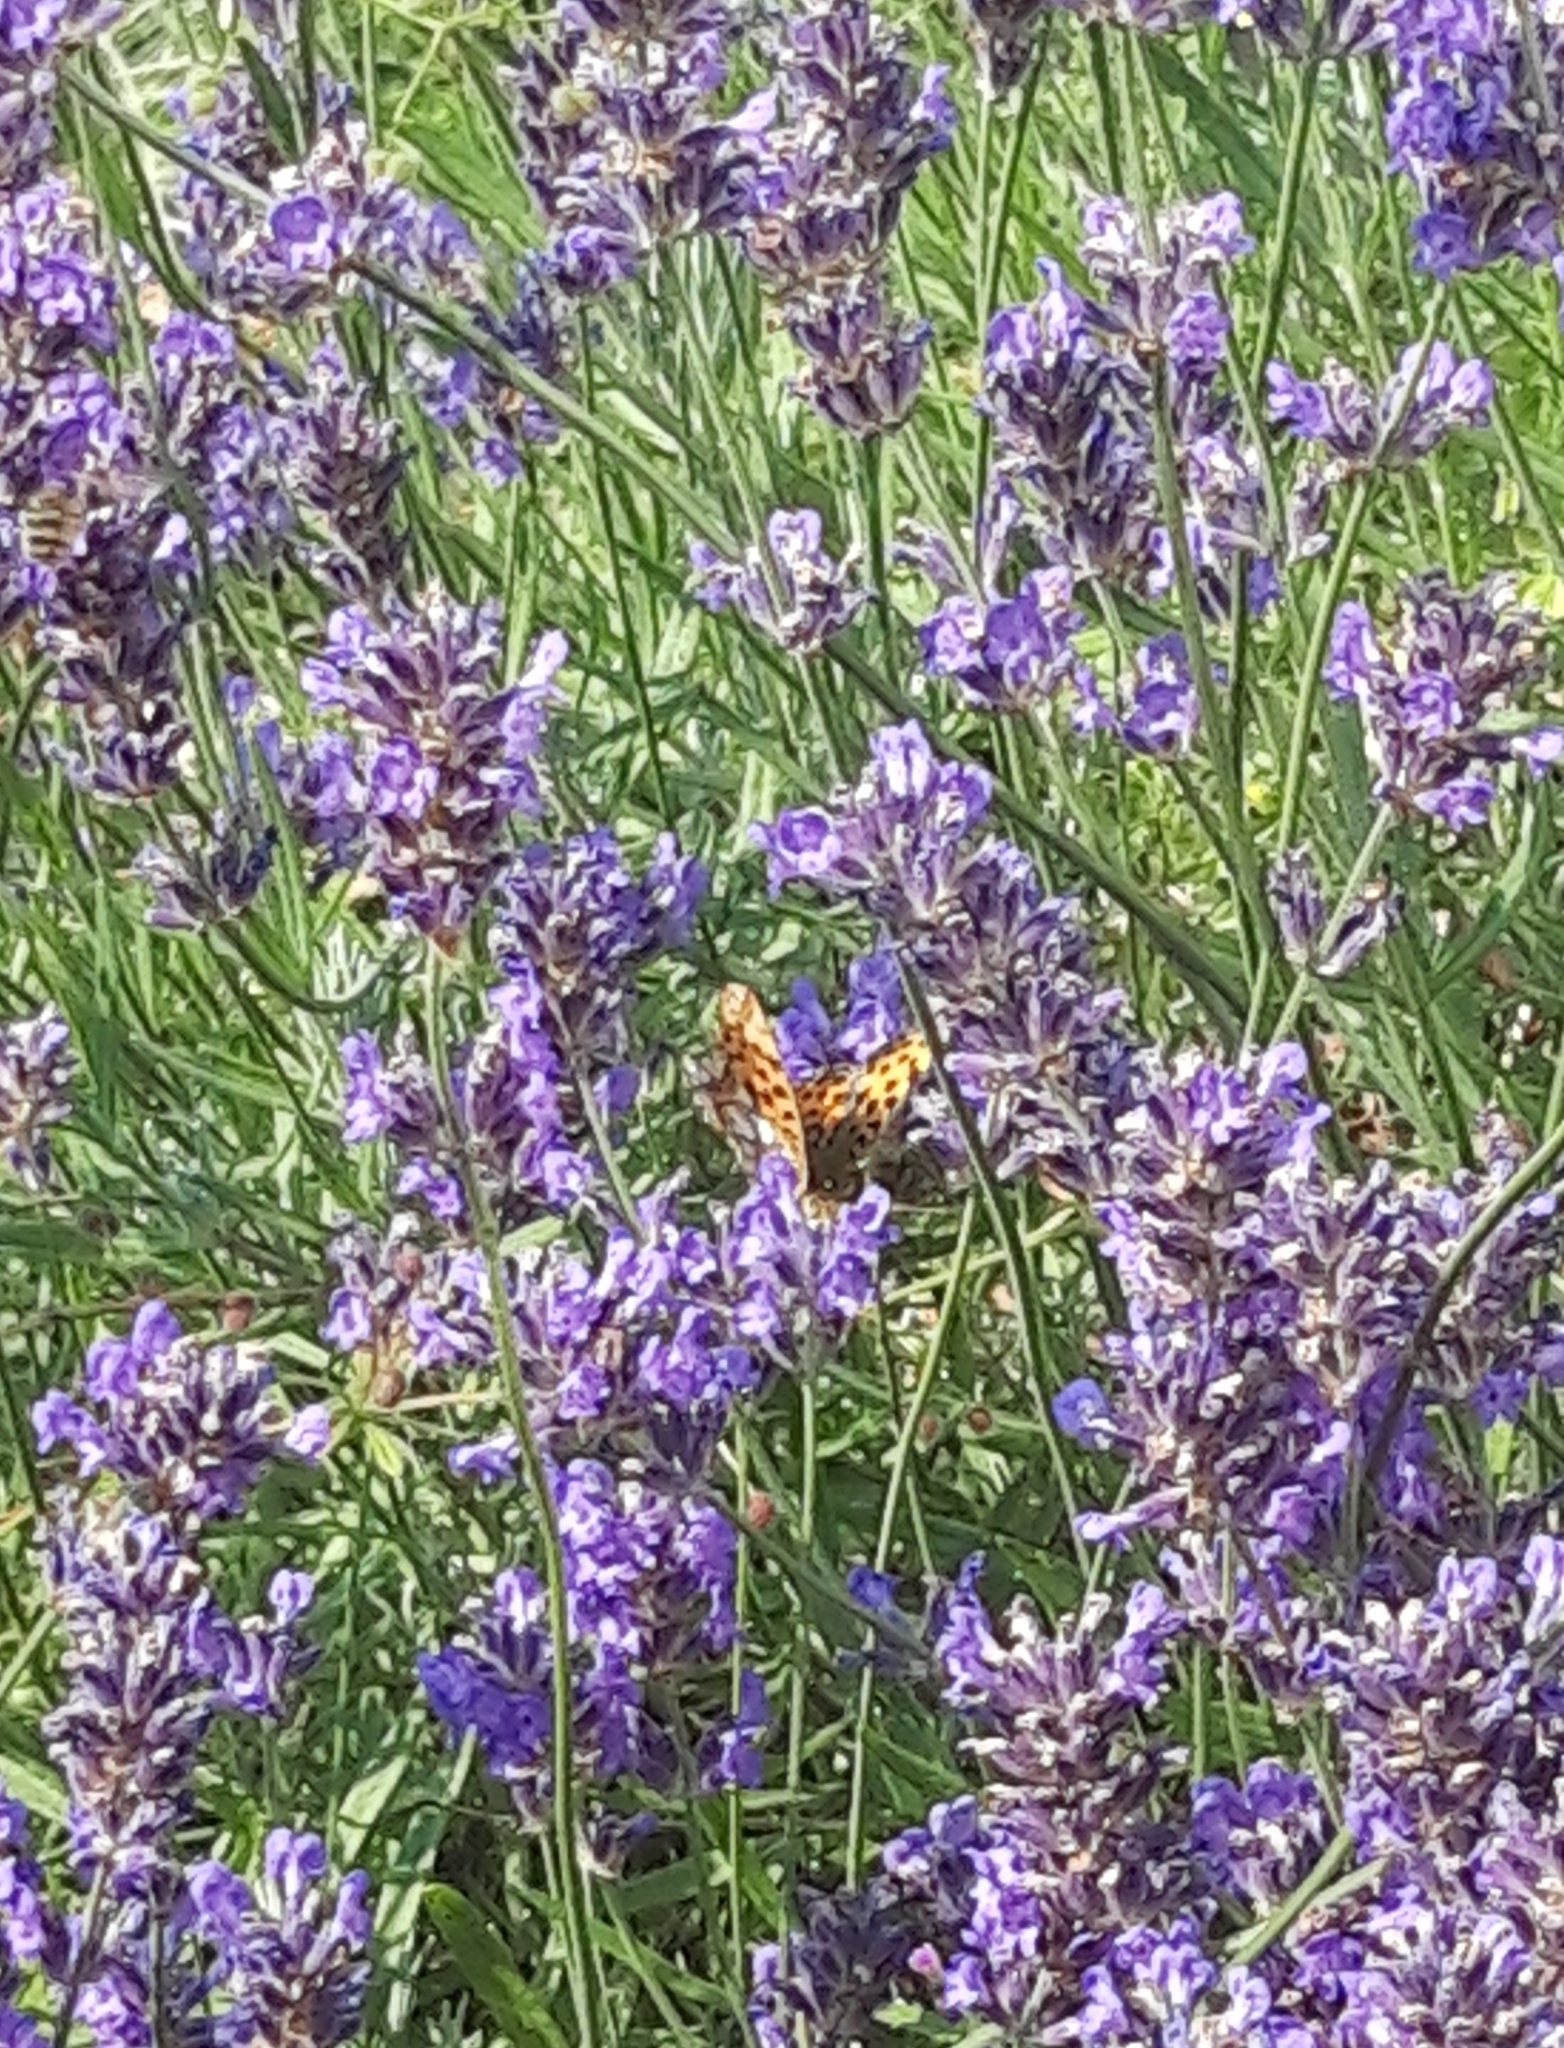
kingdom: Animalia
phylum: Arthropoda
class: Insecta
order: Lepidoptera
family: Nymphalidae
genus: Issoria
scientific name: Issoria lathonia
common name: Queen of spain fritillary
